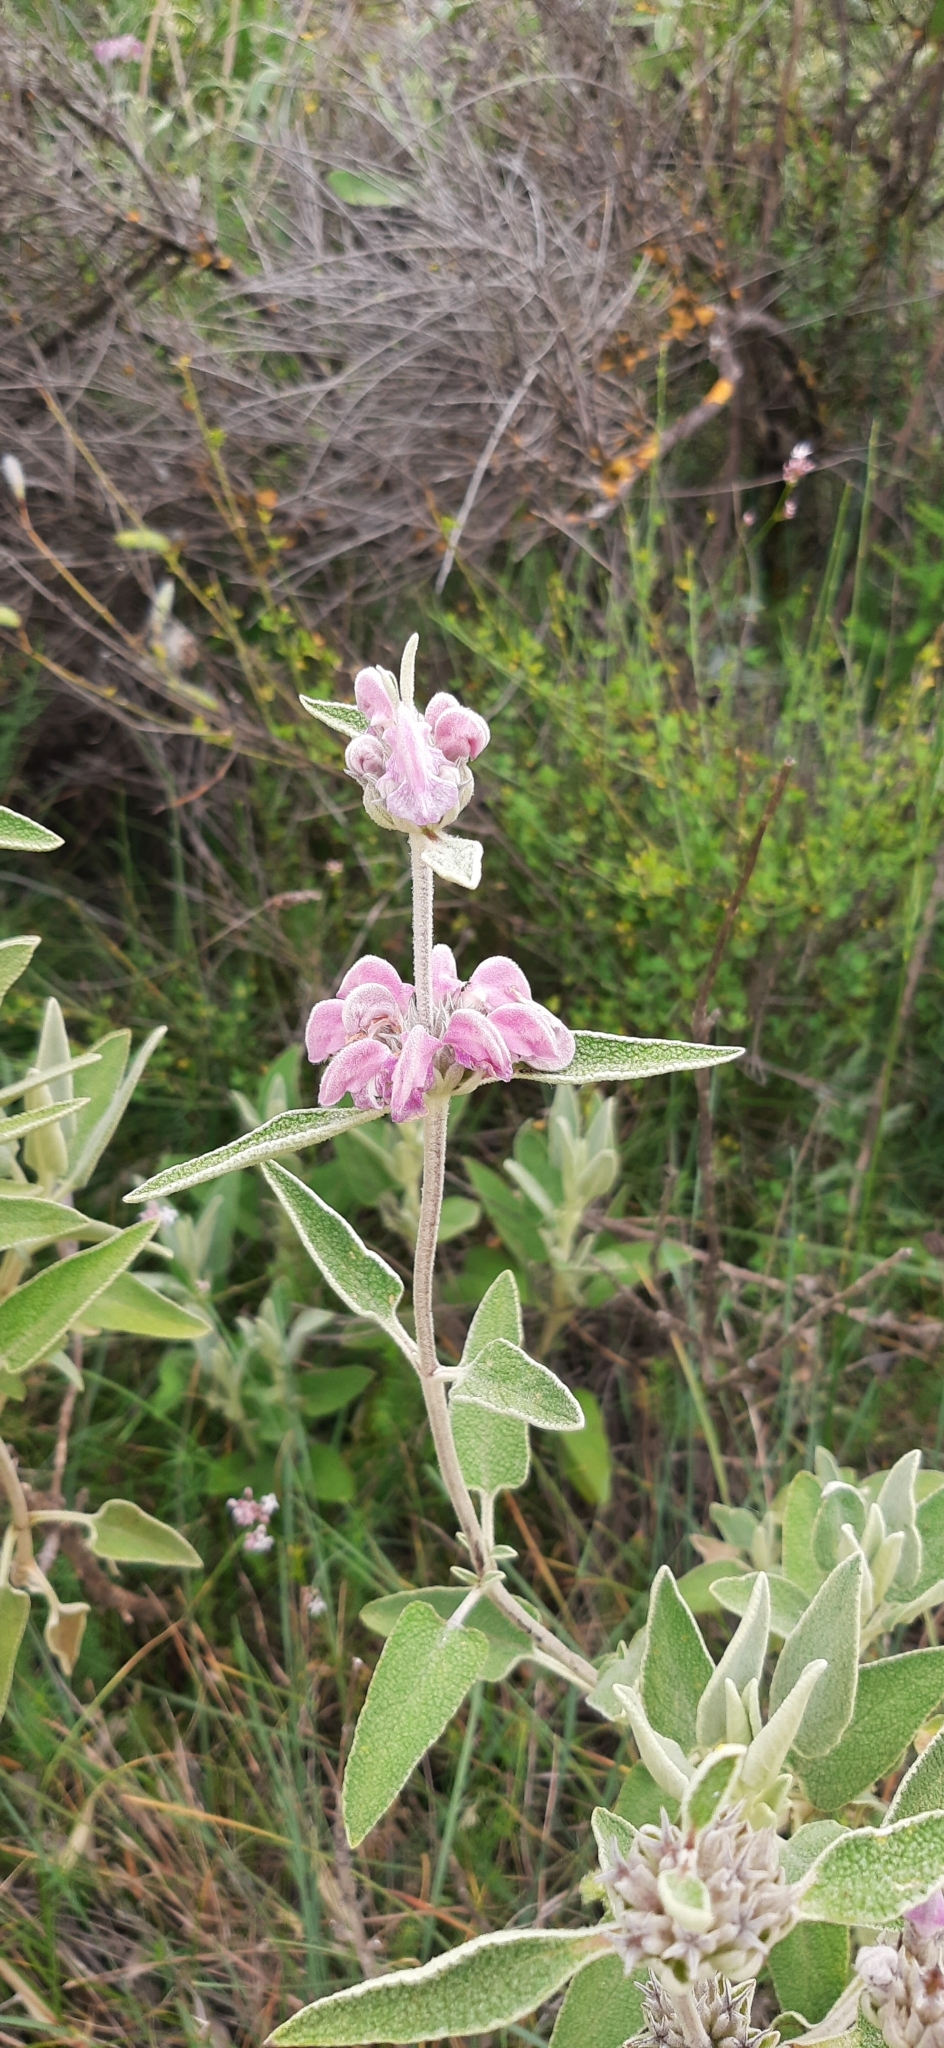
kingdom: Plantae
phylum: Tracheophyta
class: Magnoliopsida
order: Lamiales
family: Lamiaceae
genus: Phlomis
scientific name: Phlomis purpurea
